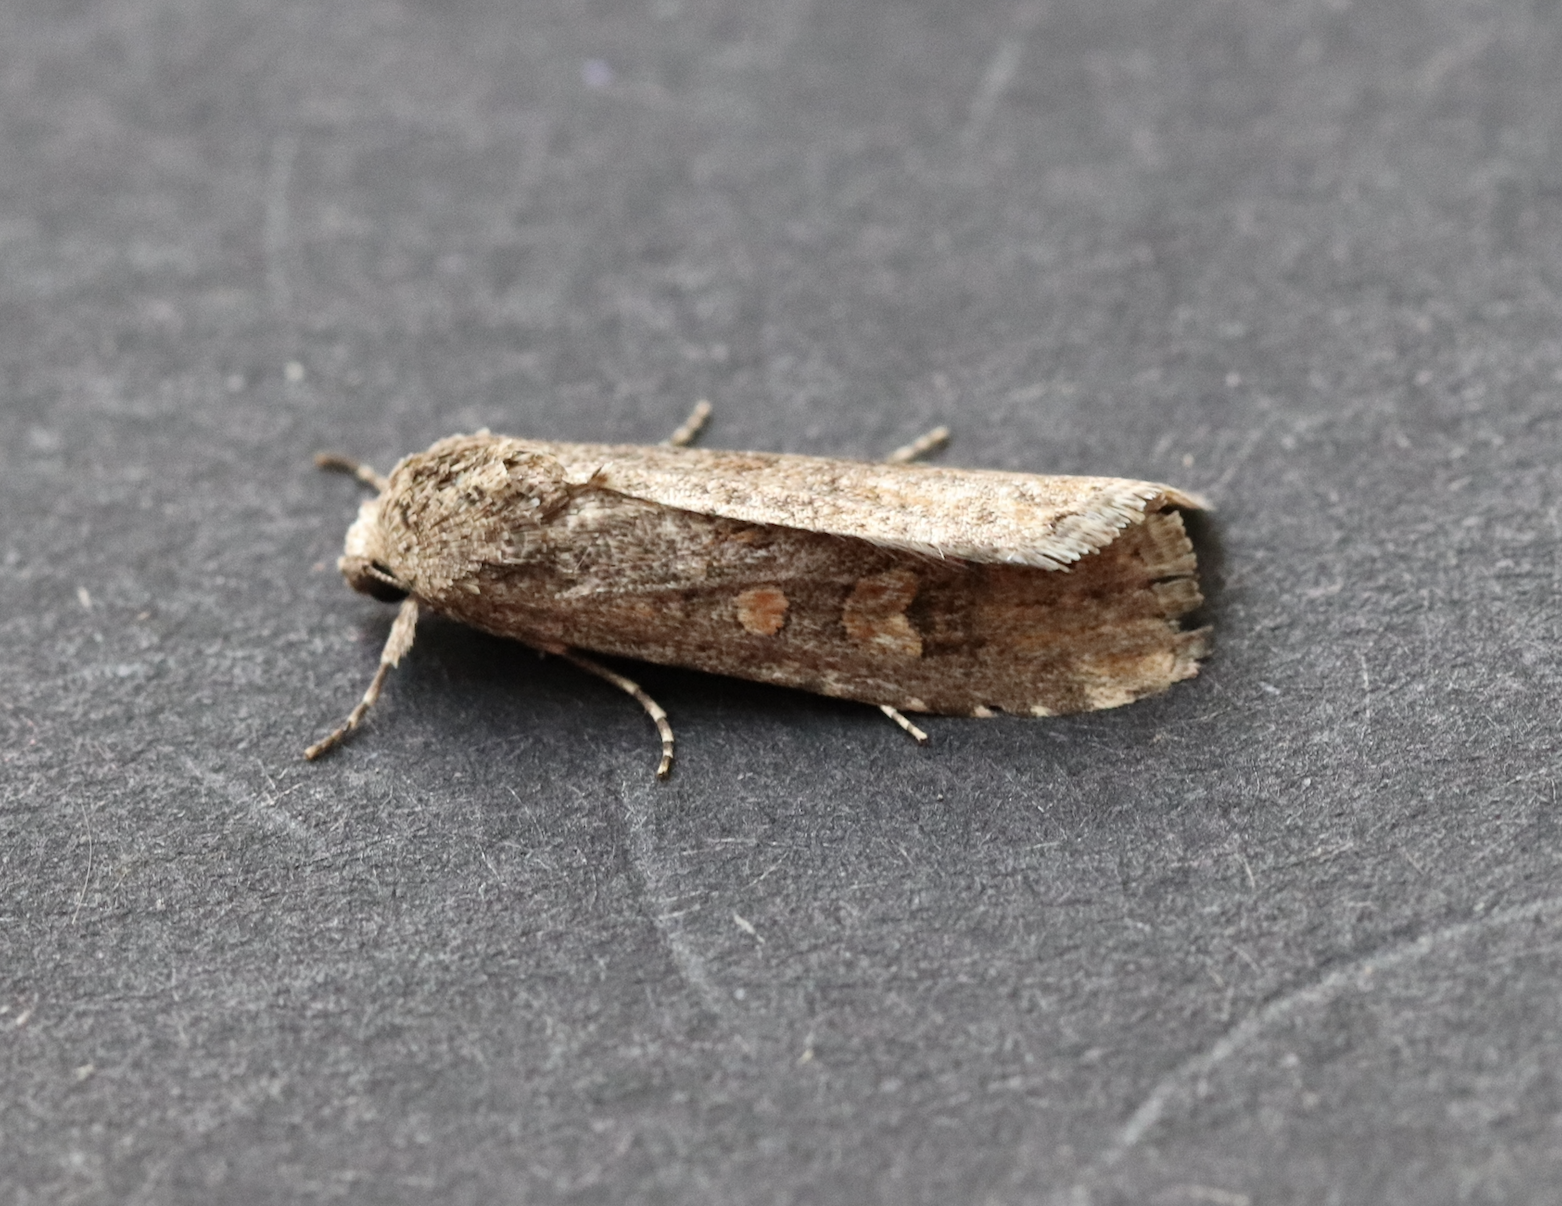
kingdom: Animalia
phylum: Arthropoda
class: Insecta
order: Lepidoptera
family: Noctuidae
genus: Spodoptera
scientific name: Spodoptera exigua
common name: Beet armyworm
